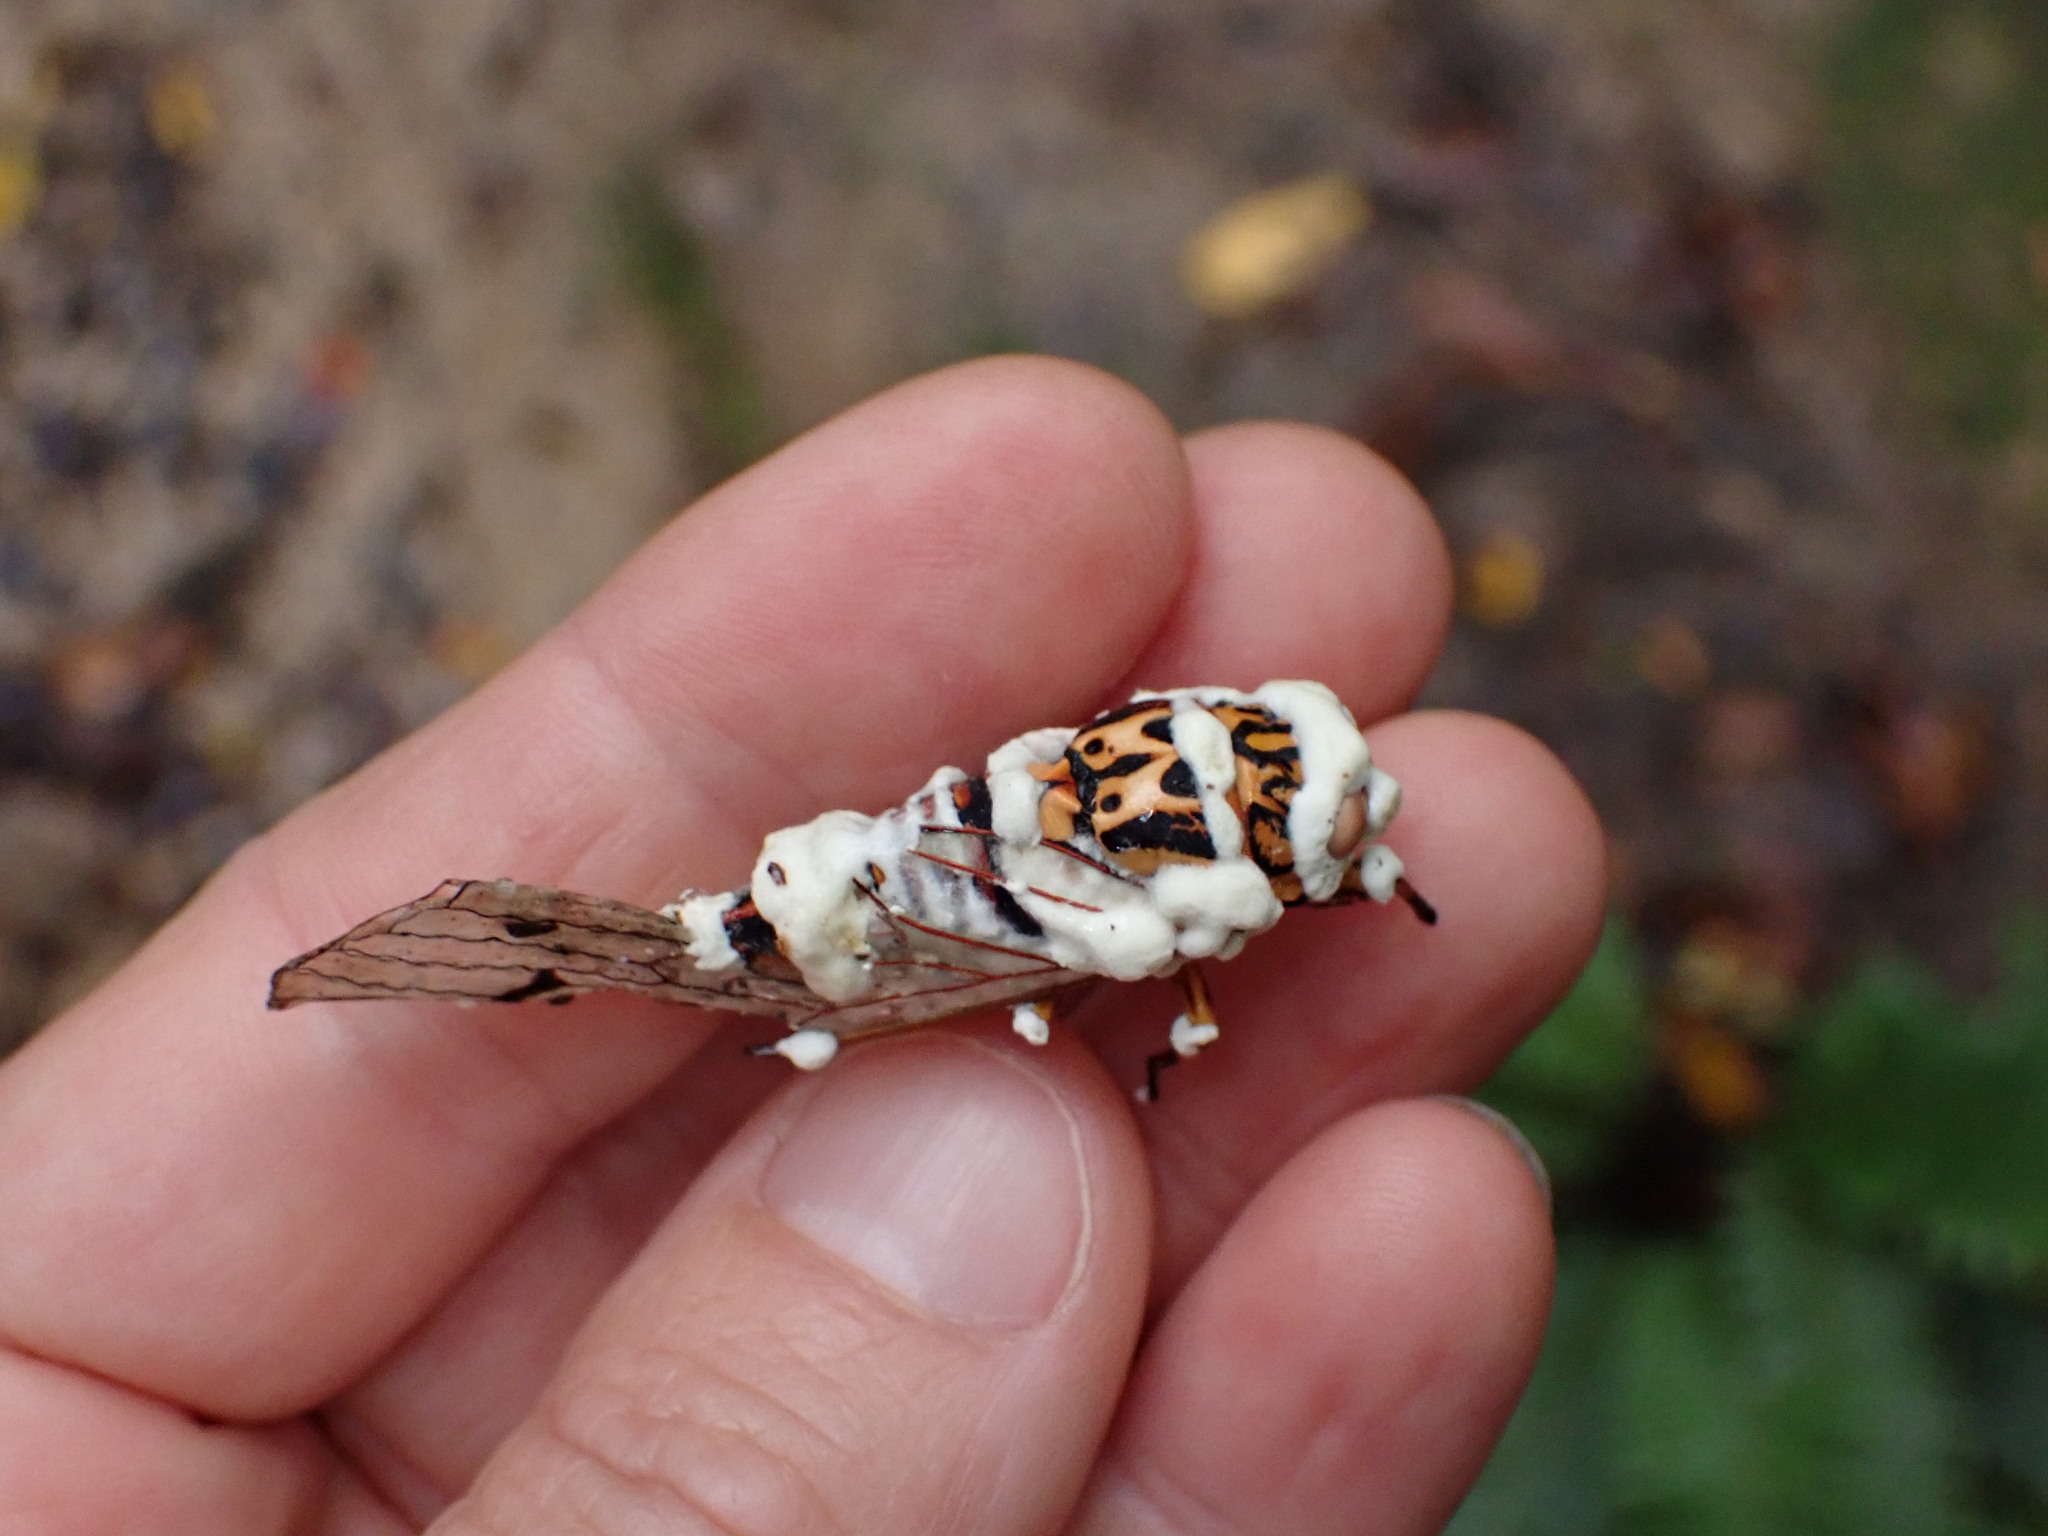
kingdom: Fungi
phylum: Ascomycota
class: Sordariomycetes
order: Hypocreales
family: Cordycipitaceae
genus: Beauveria
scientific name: Beauveria bassiana
